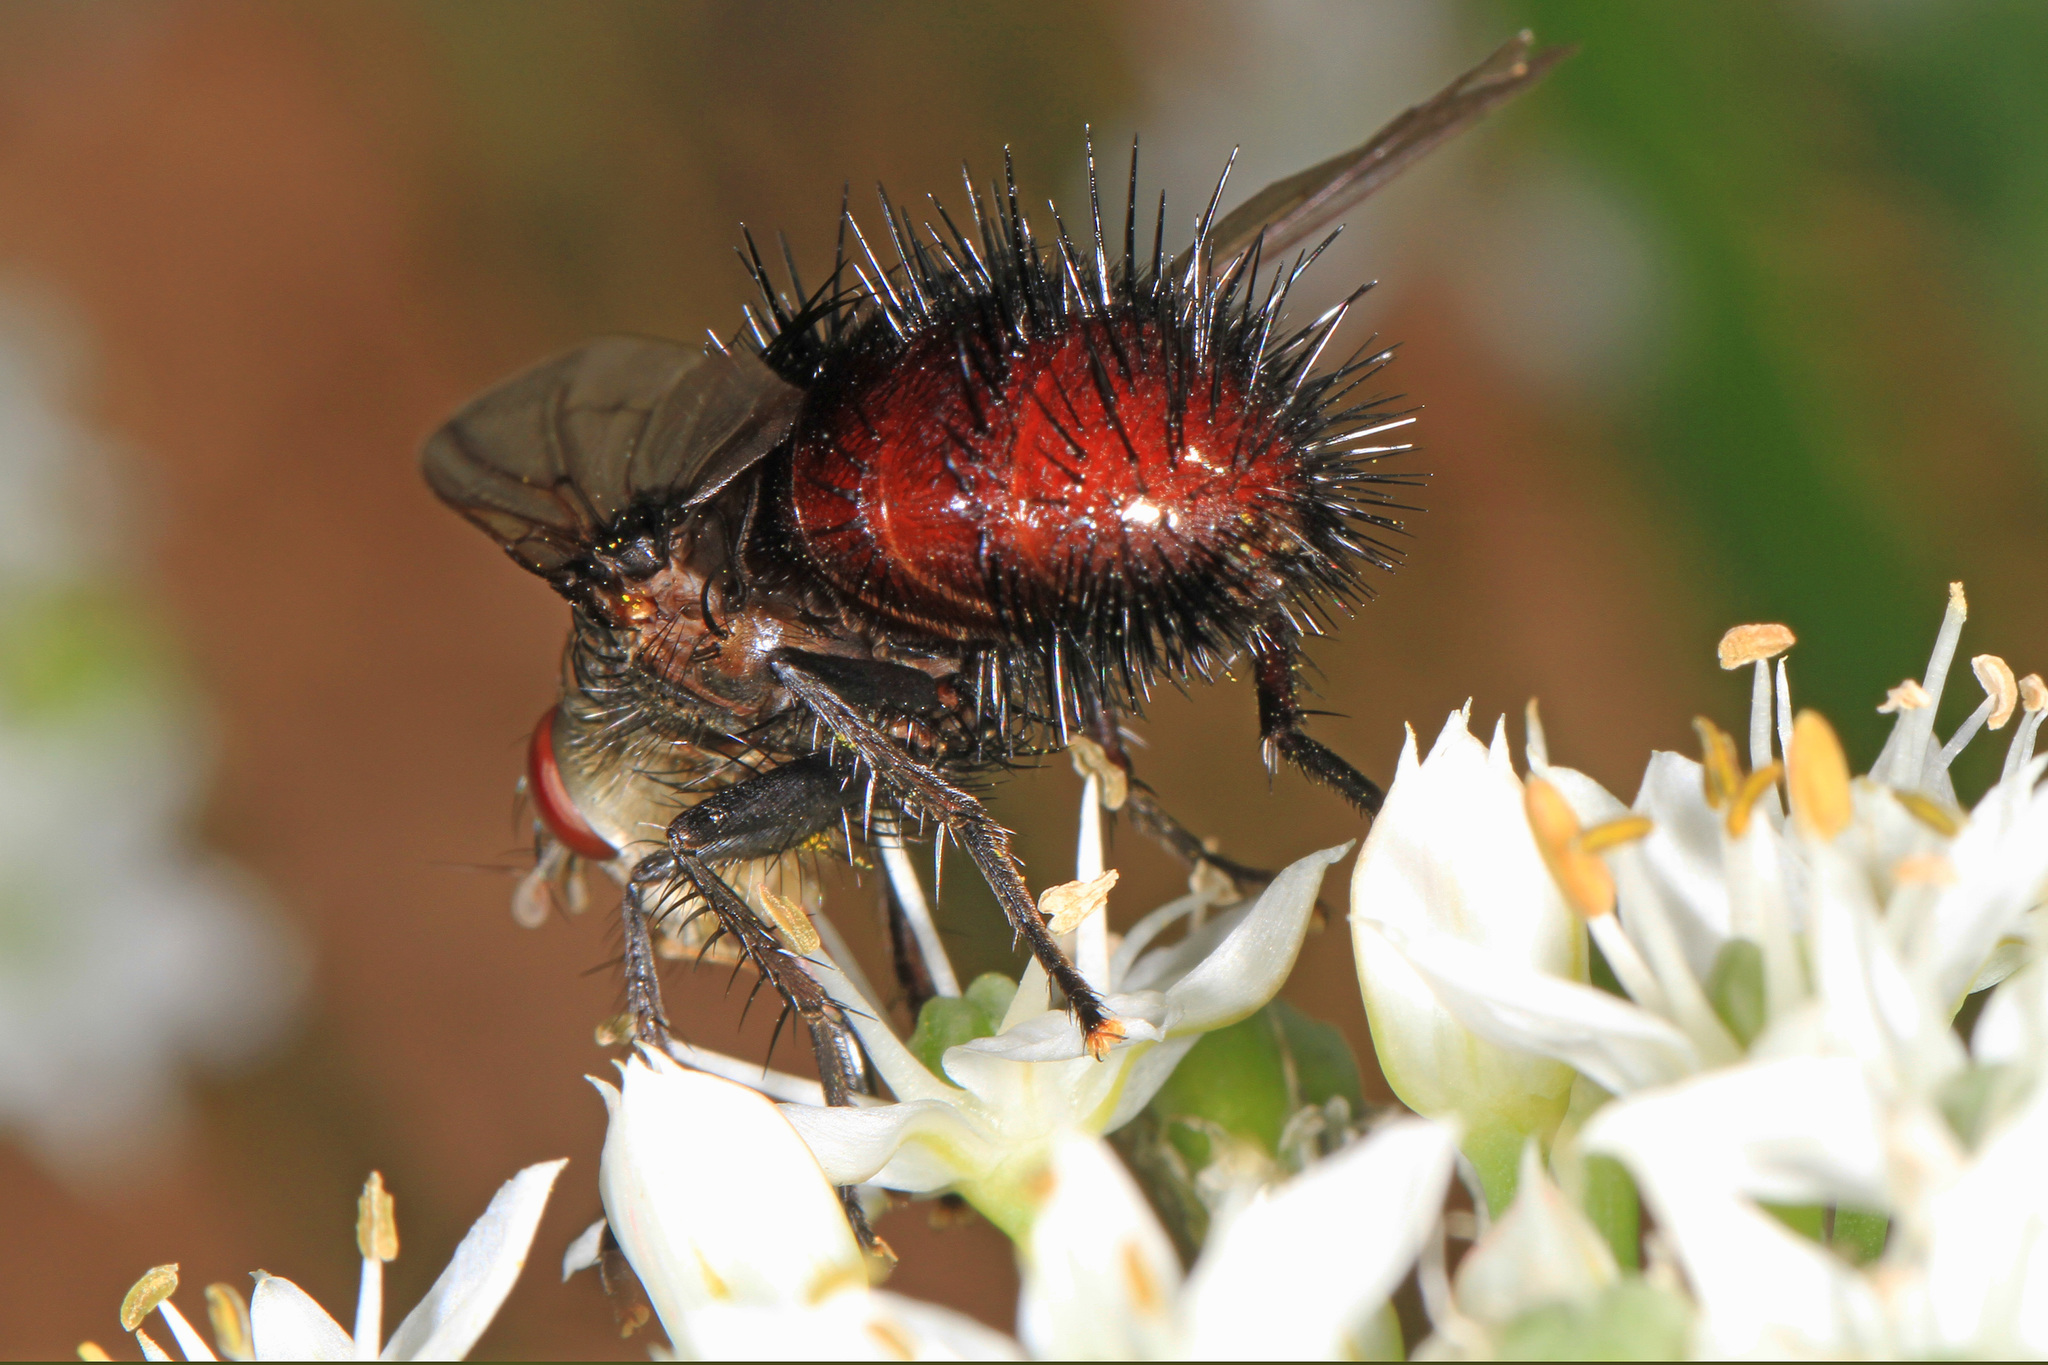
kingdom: Animalia
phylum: Arthropoda
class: Insecta
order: Diptera
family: Tachinidae
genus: Juriniopsis
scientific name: Juriniopsis adusta
